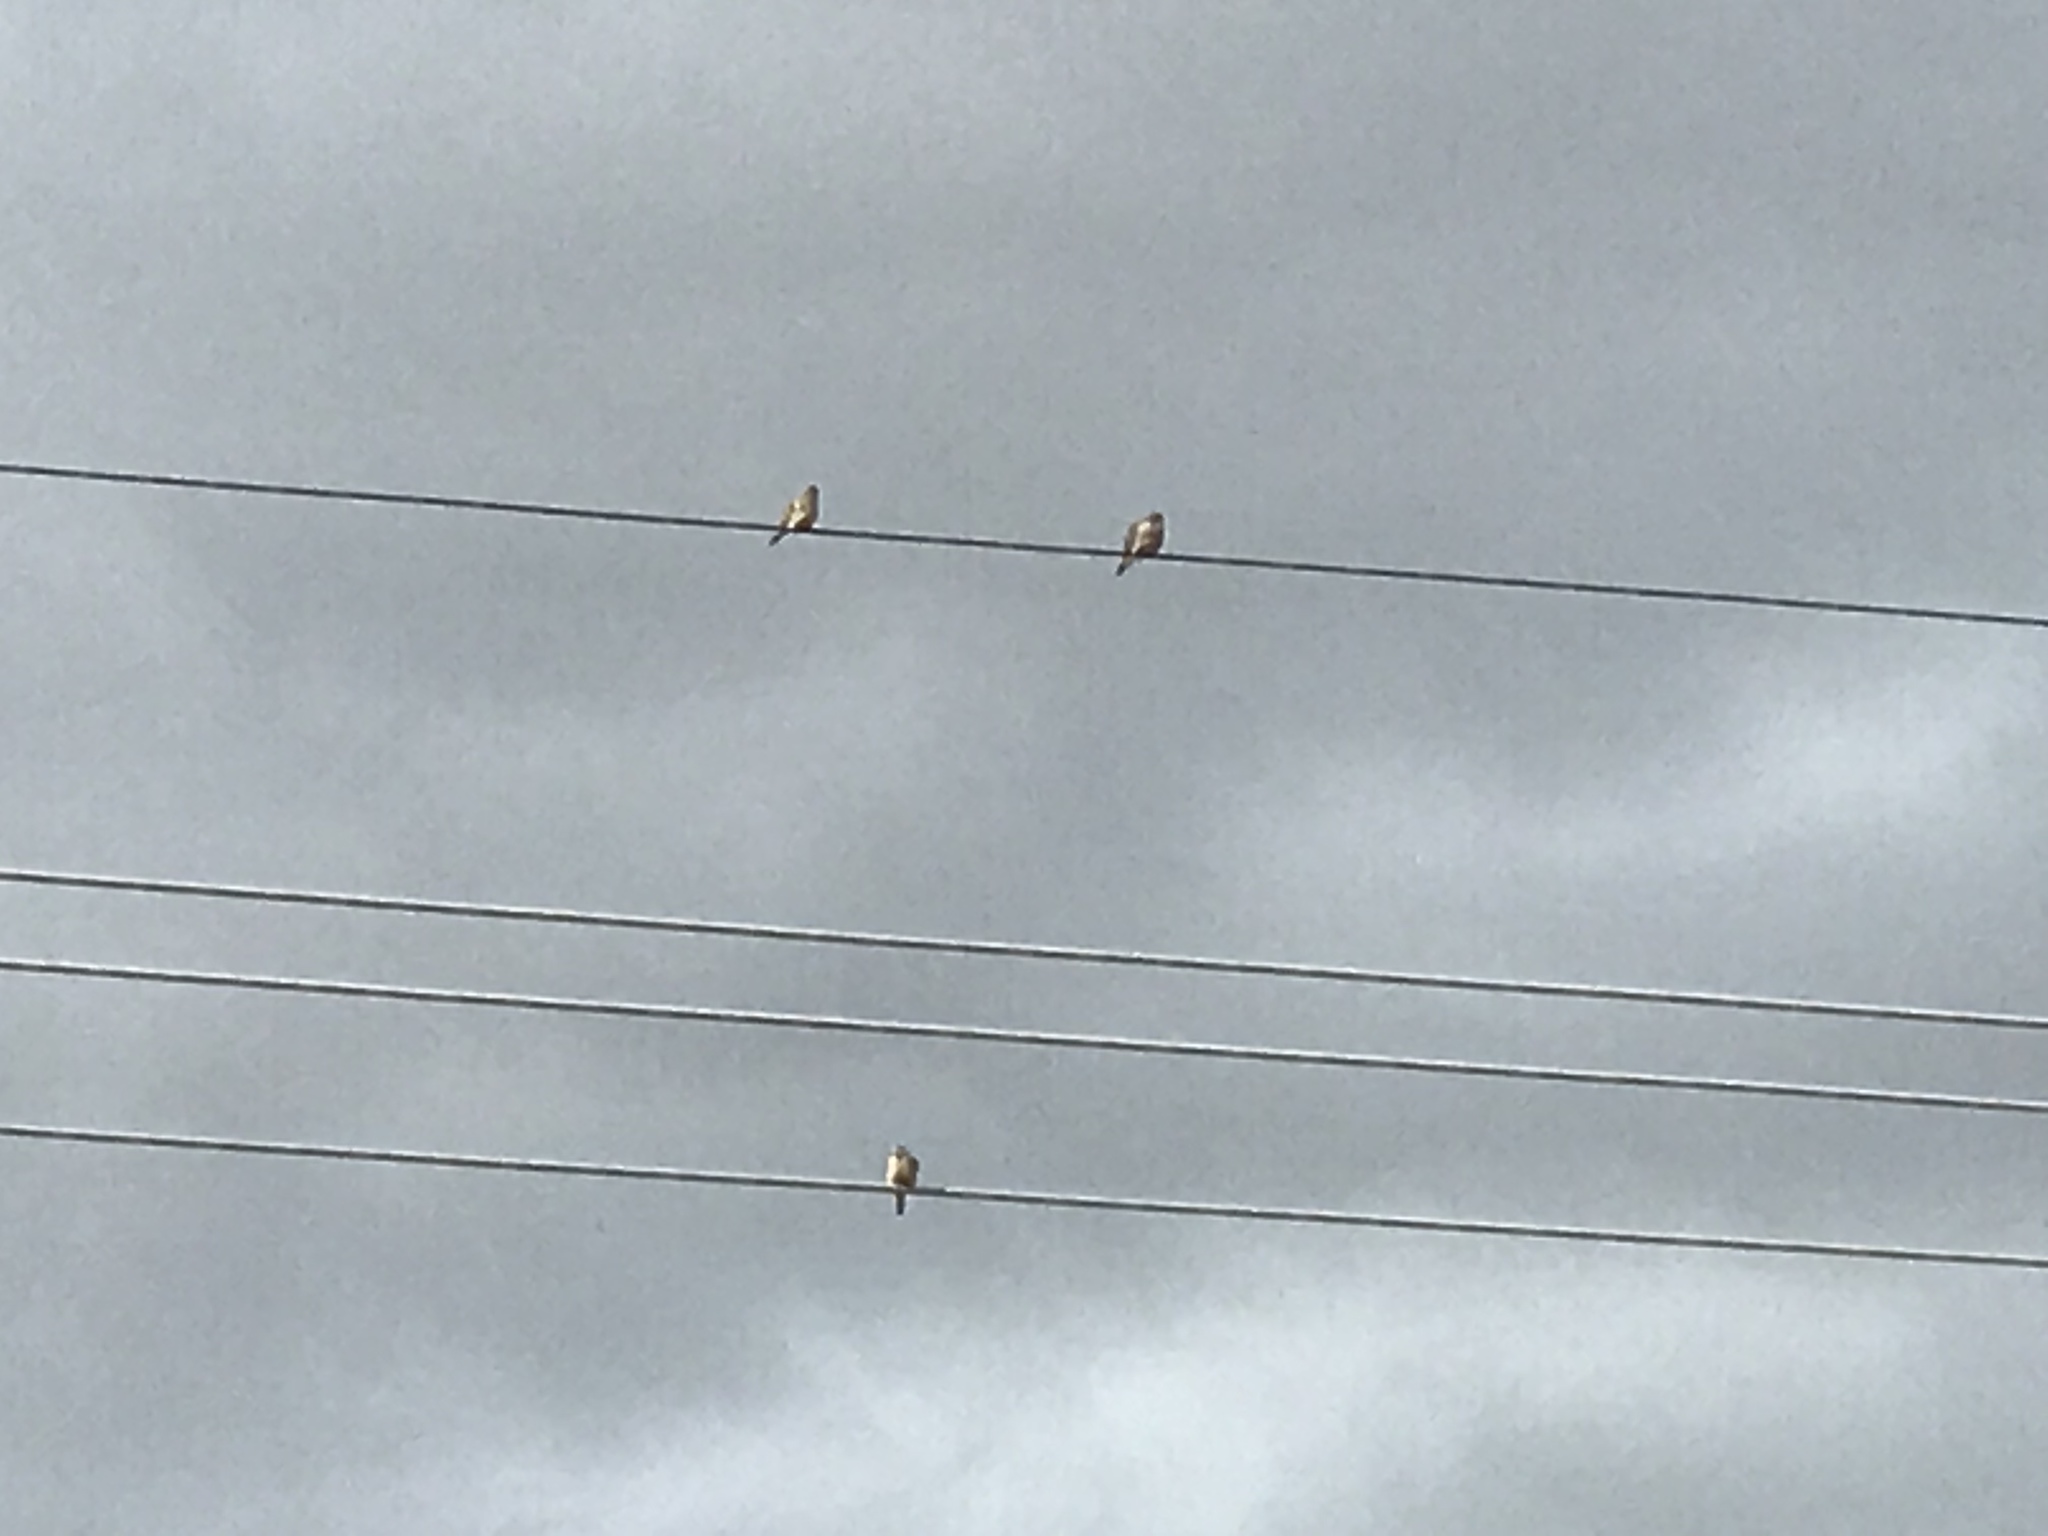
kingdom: Animalia
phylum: Chordata
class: Aves
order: Columbiformes
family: Columbidae
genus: Zenaida
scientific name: Zenaida macroura
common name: Mourning dove
